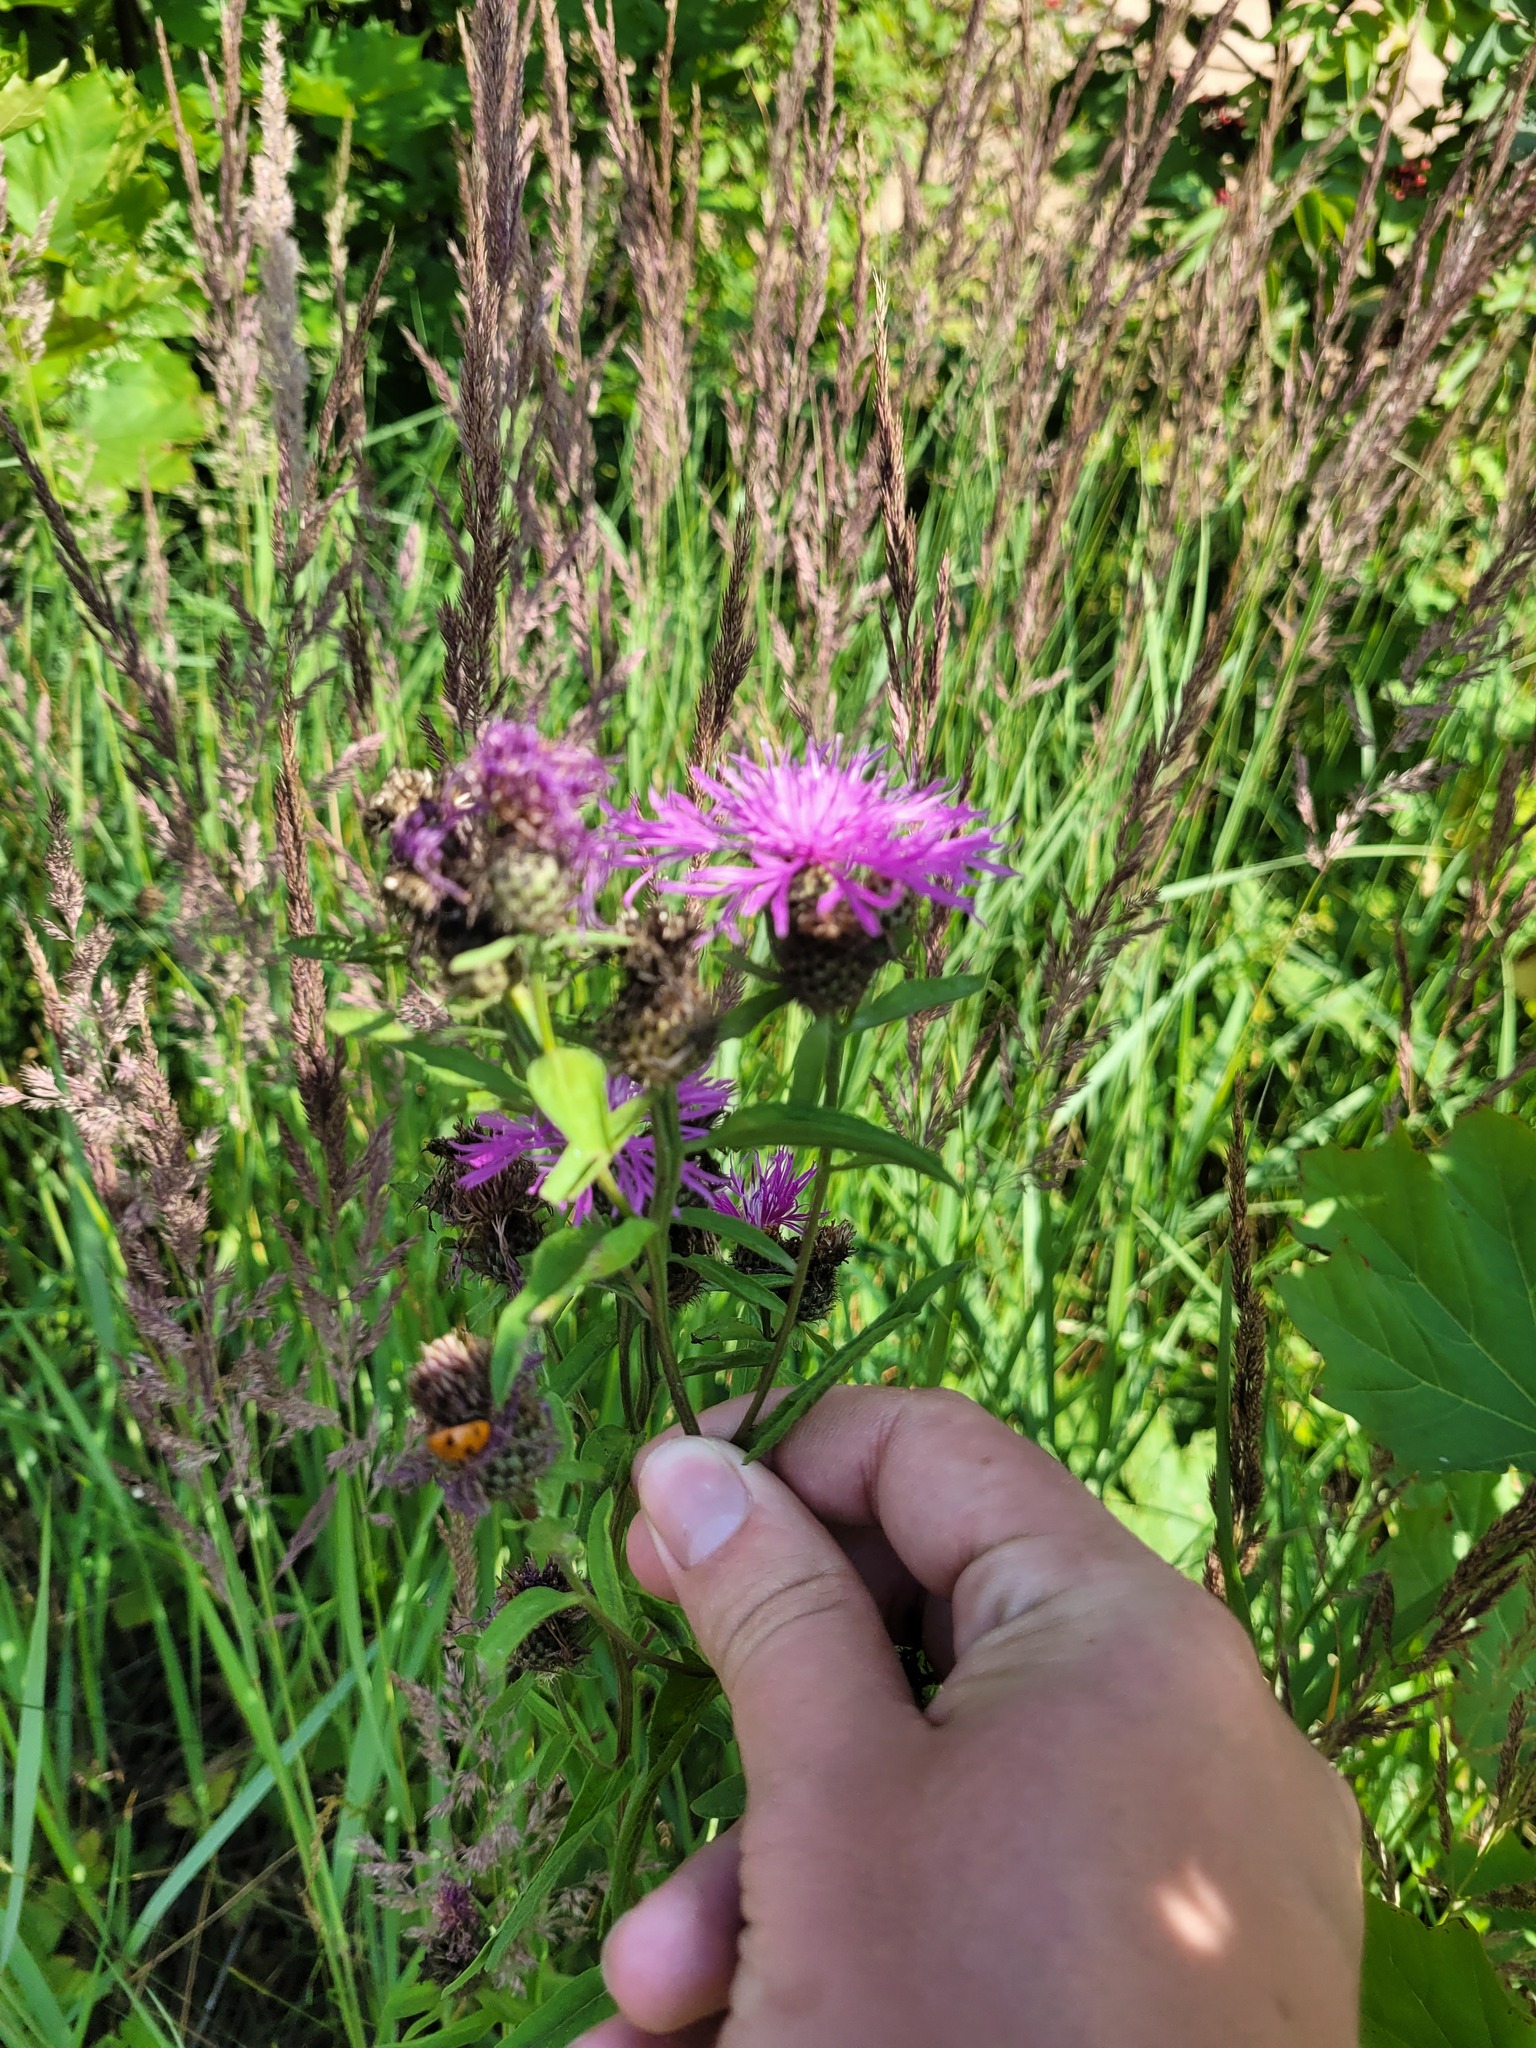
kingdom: Plantae
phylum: Tracheophyta
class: Magnoliopsida
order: Asterales
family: Asteraceae
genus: Centaurea
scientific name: Centaurea phrygia
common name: Wig knapweed
